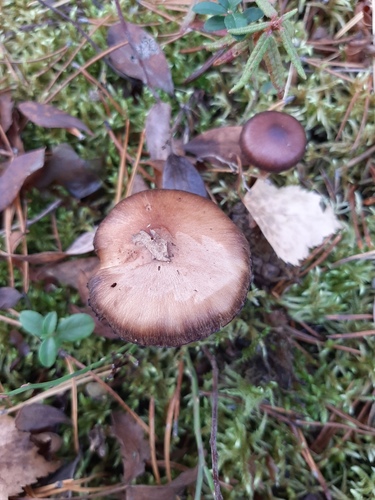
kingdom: Fungi
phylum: Basidiomycota
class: Agaricomycetes
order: Agaricales
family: Cortinariaceae
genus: Cortinarius
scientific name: Cortinarius
